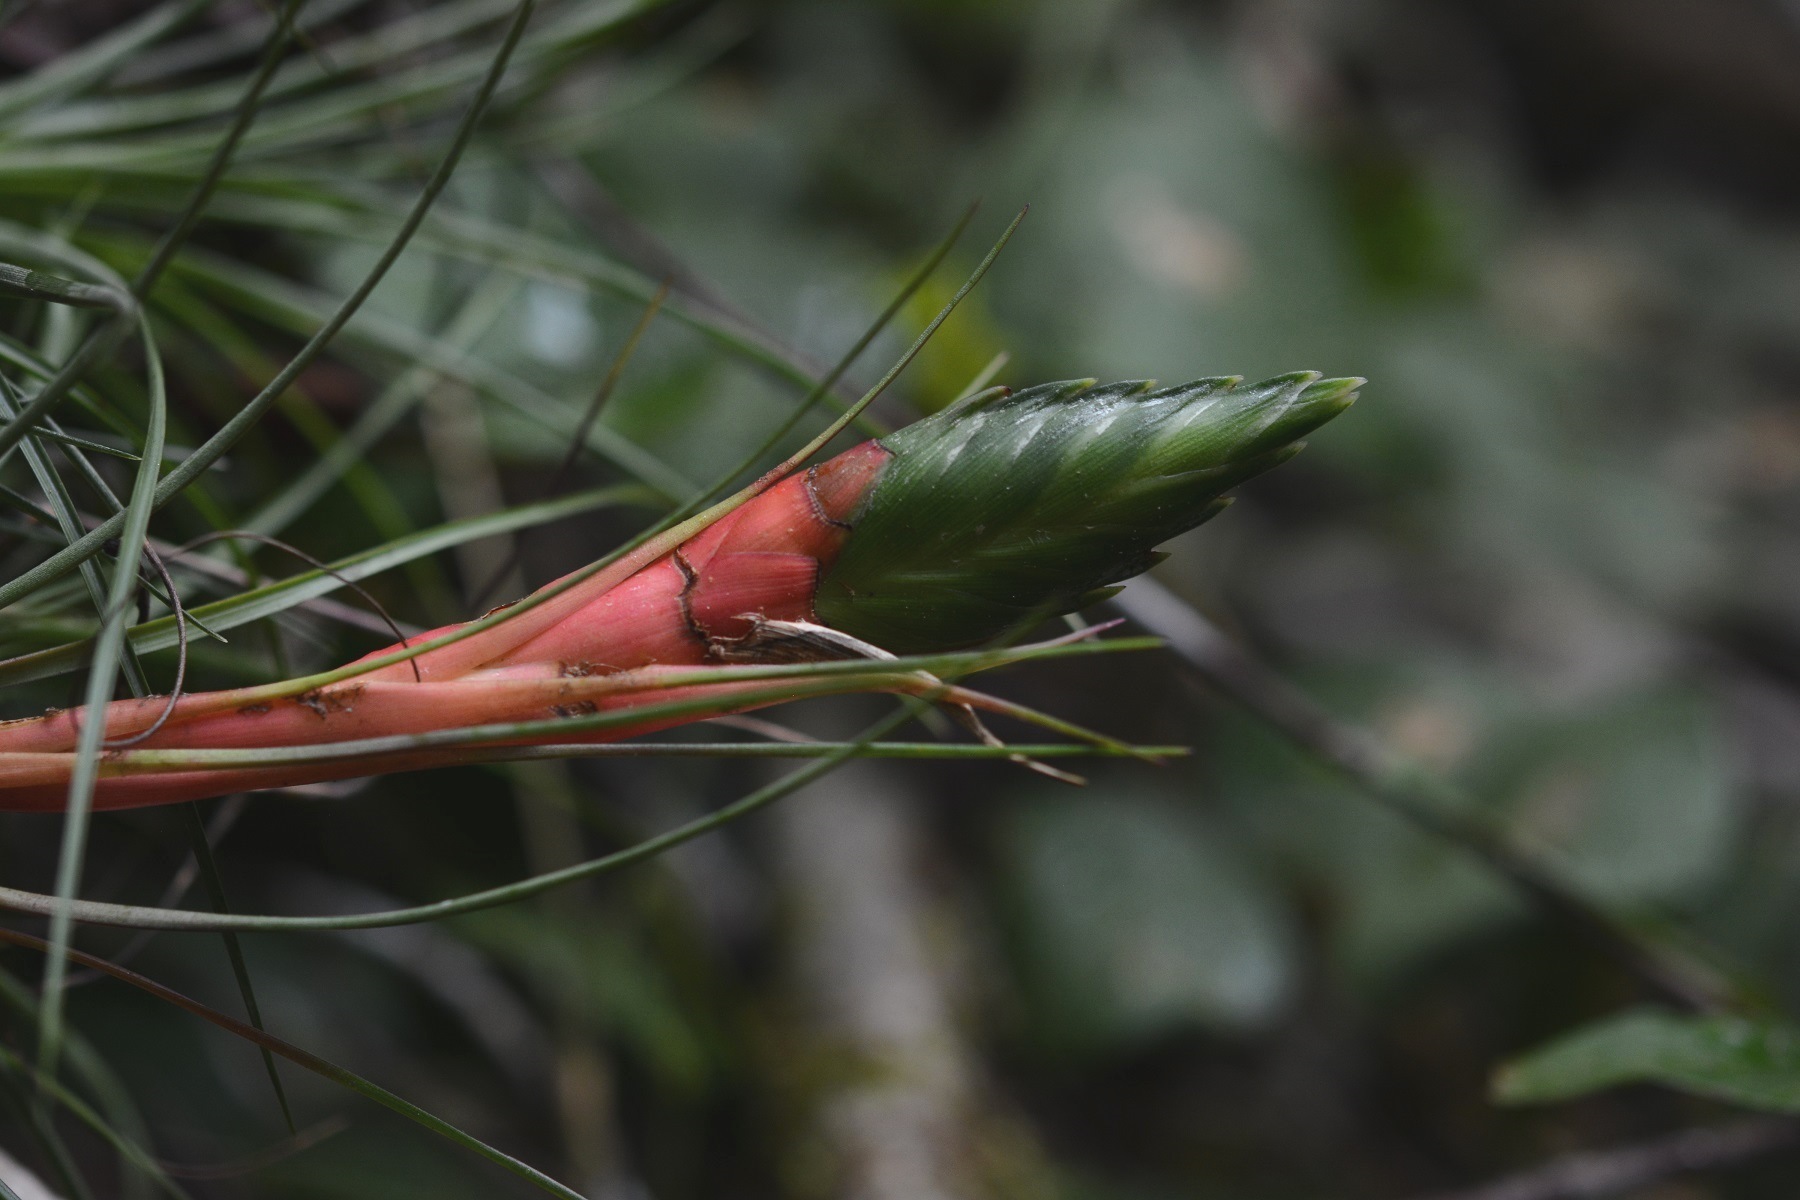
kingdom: Plantae
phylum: Tracheophyta
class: Liliopsida
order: Poales
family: Bromeliaceae
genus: Tillandsia
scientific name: Tillandsia punctulata
